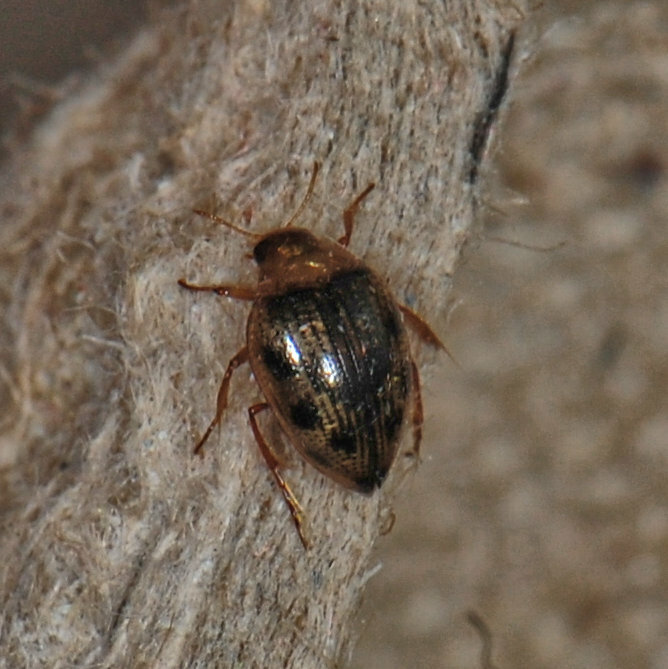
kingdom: Animalia
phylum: Arthropoda
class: Insecta
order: Coleoptera
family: Haliplidae
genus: Haliplus
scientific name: Haliplus immaculicollis
